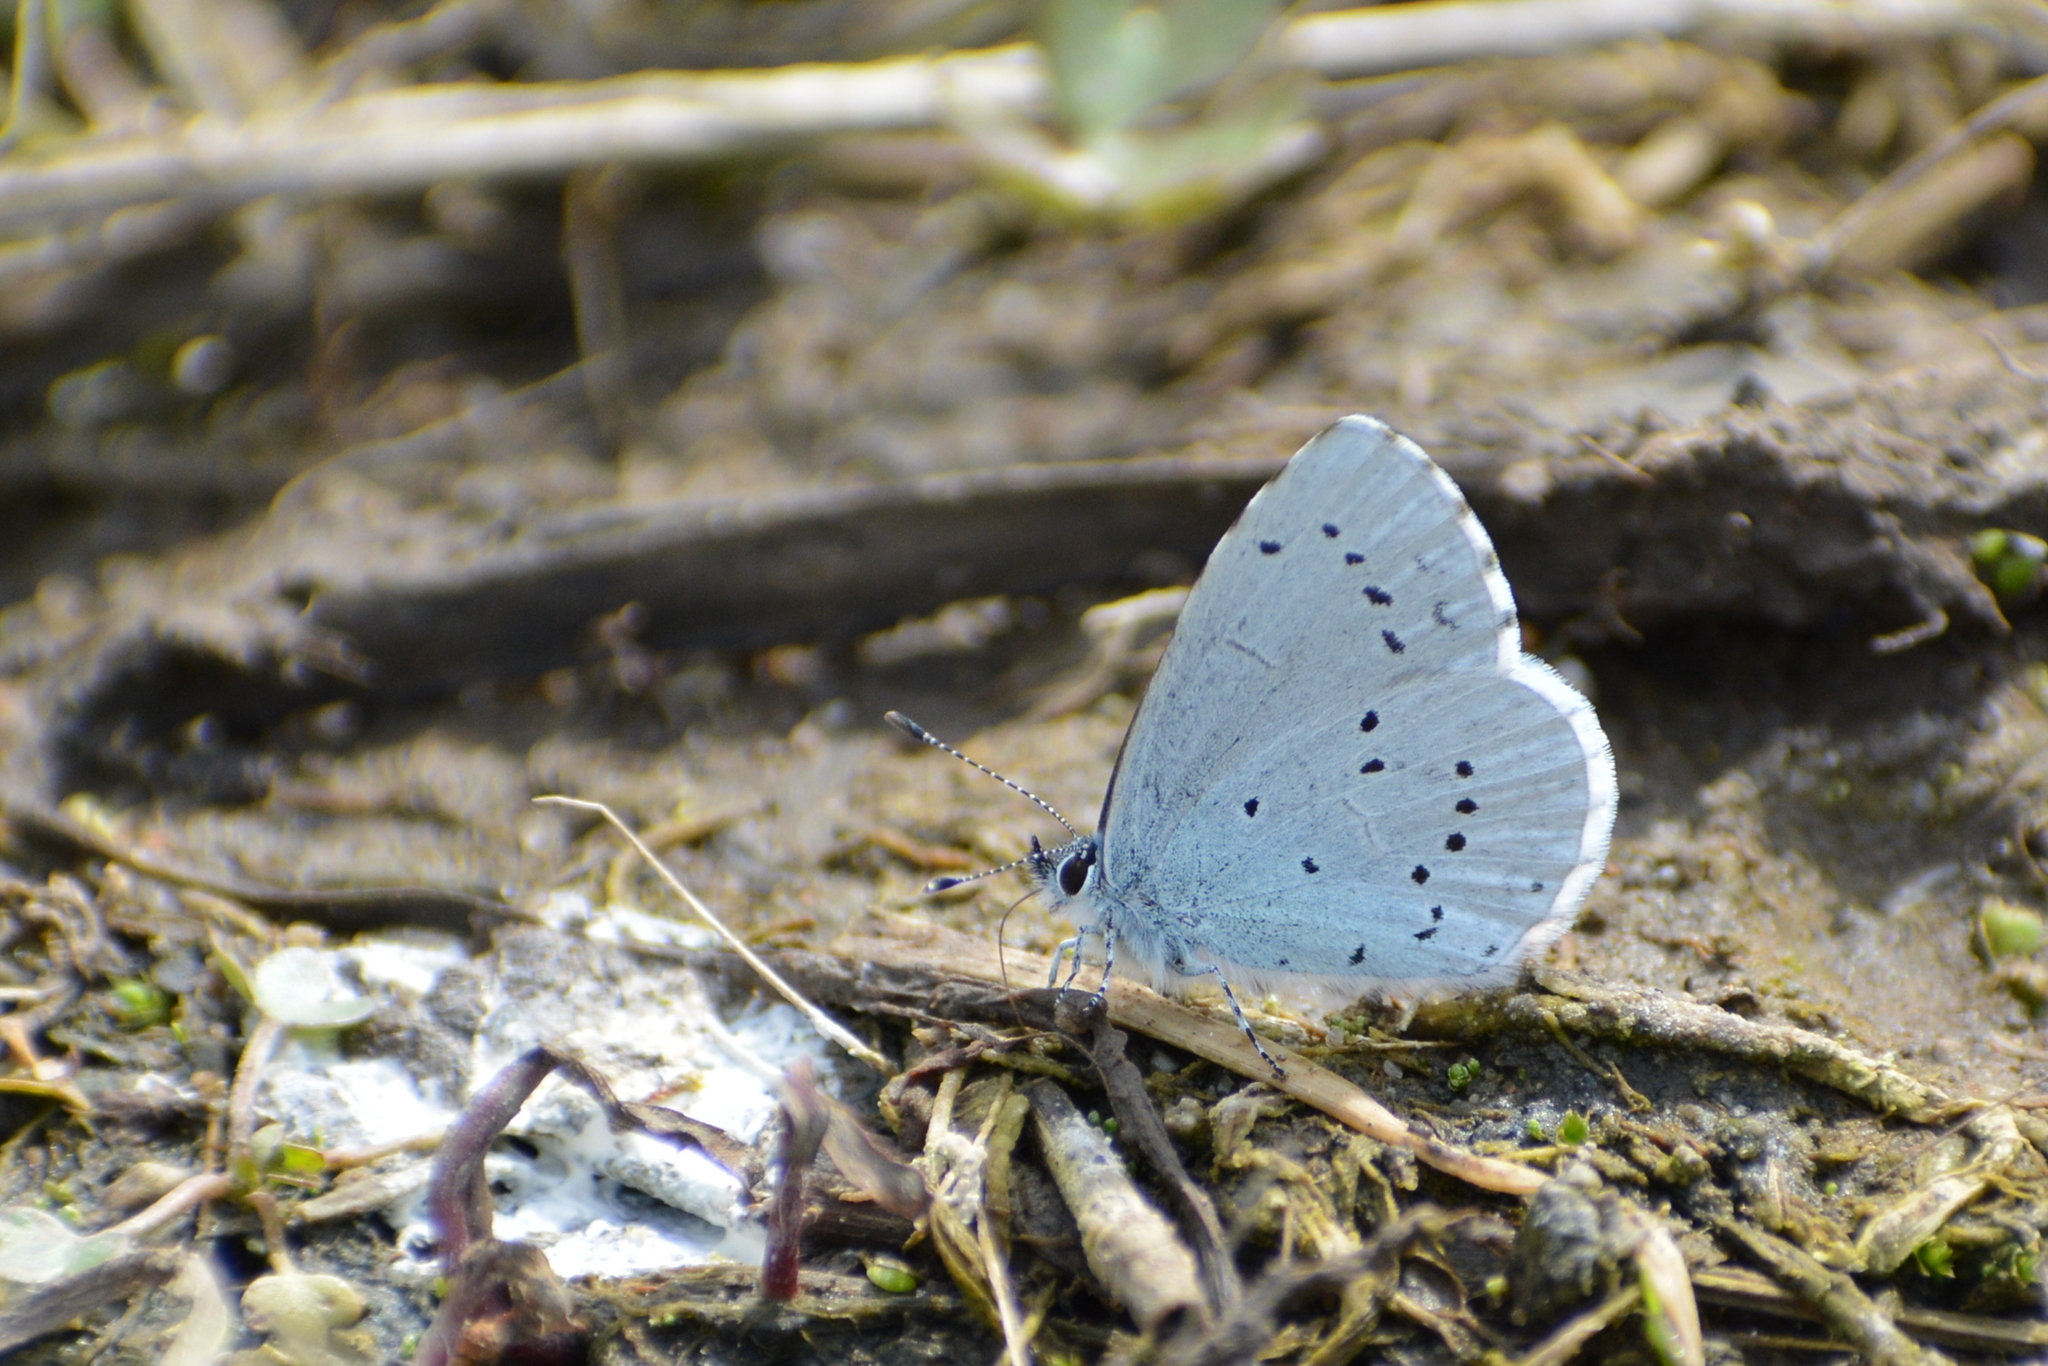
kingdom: Animalia
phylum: Arthropoda
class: Insecta
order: Lepidoptera
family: Lycaenidae
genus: Celastrina
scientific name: Celastrina argiolus
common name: Holly blue
